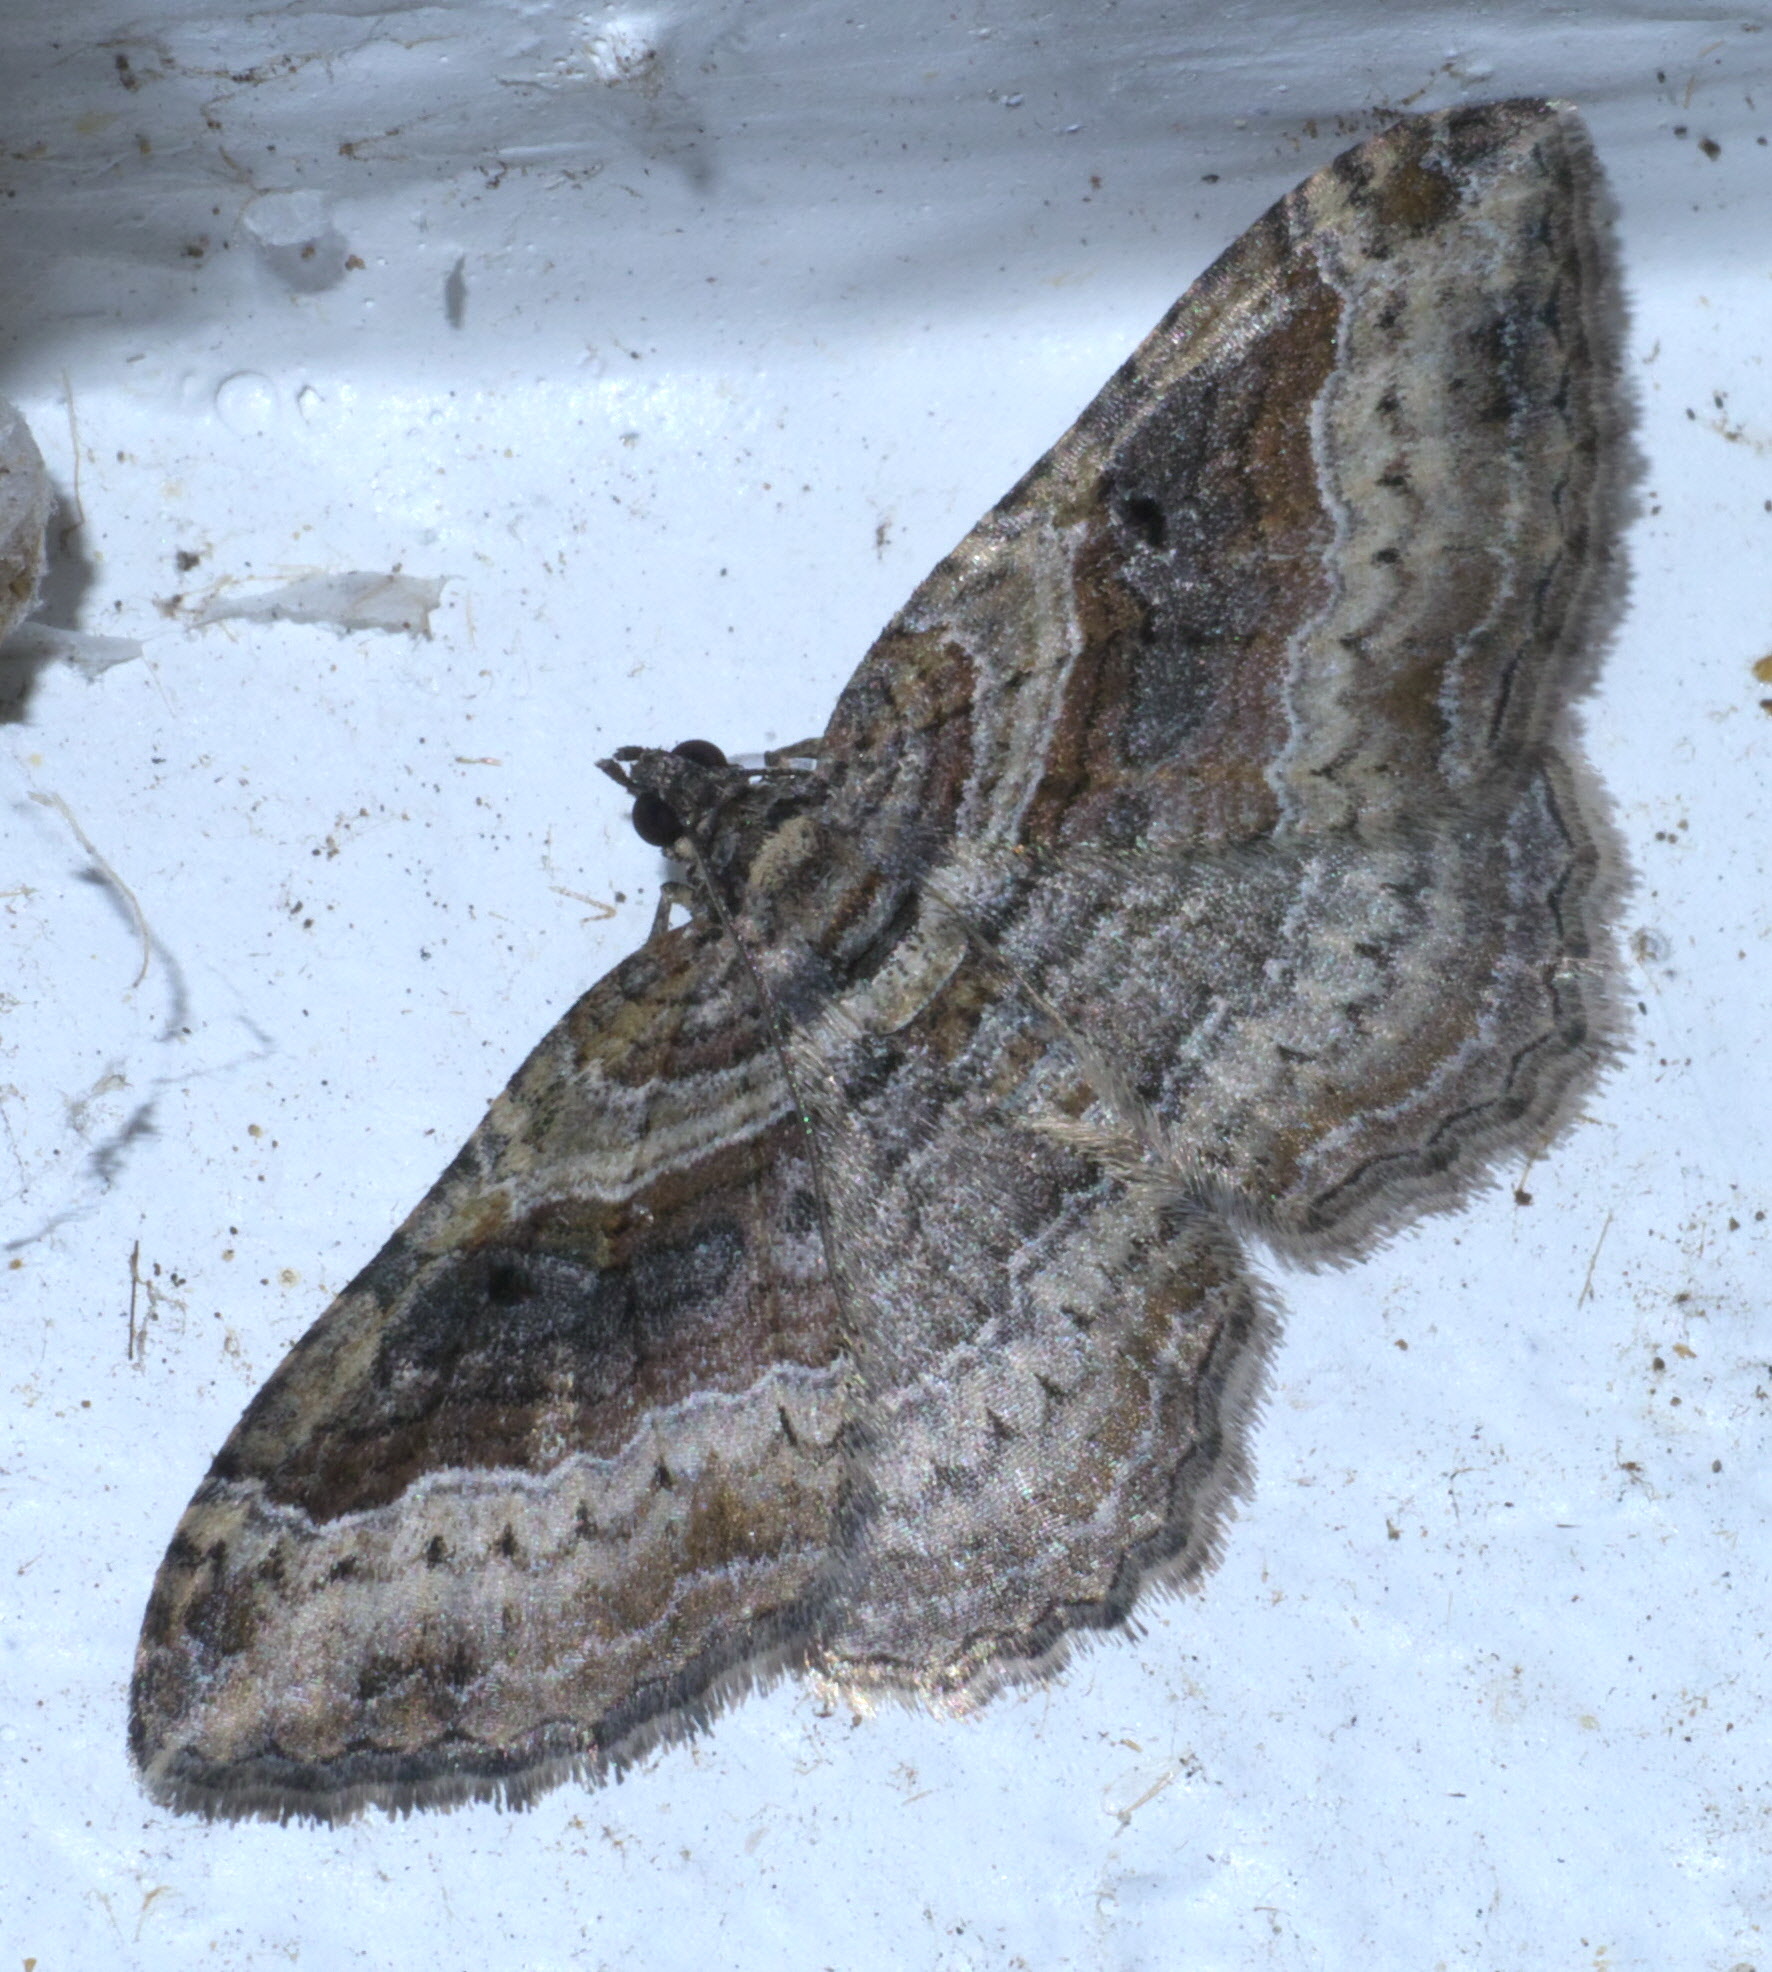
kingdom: Animalia
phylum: Arthropoda
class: Insecta
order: Lepidoptera
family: Geometridae
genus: Costaconvexa
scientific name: Costaconvexa centrostrigaria
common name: Bent-line carpet
